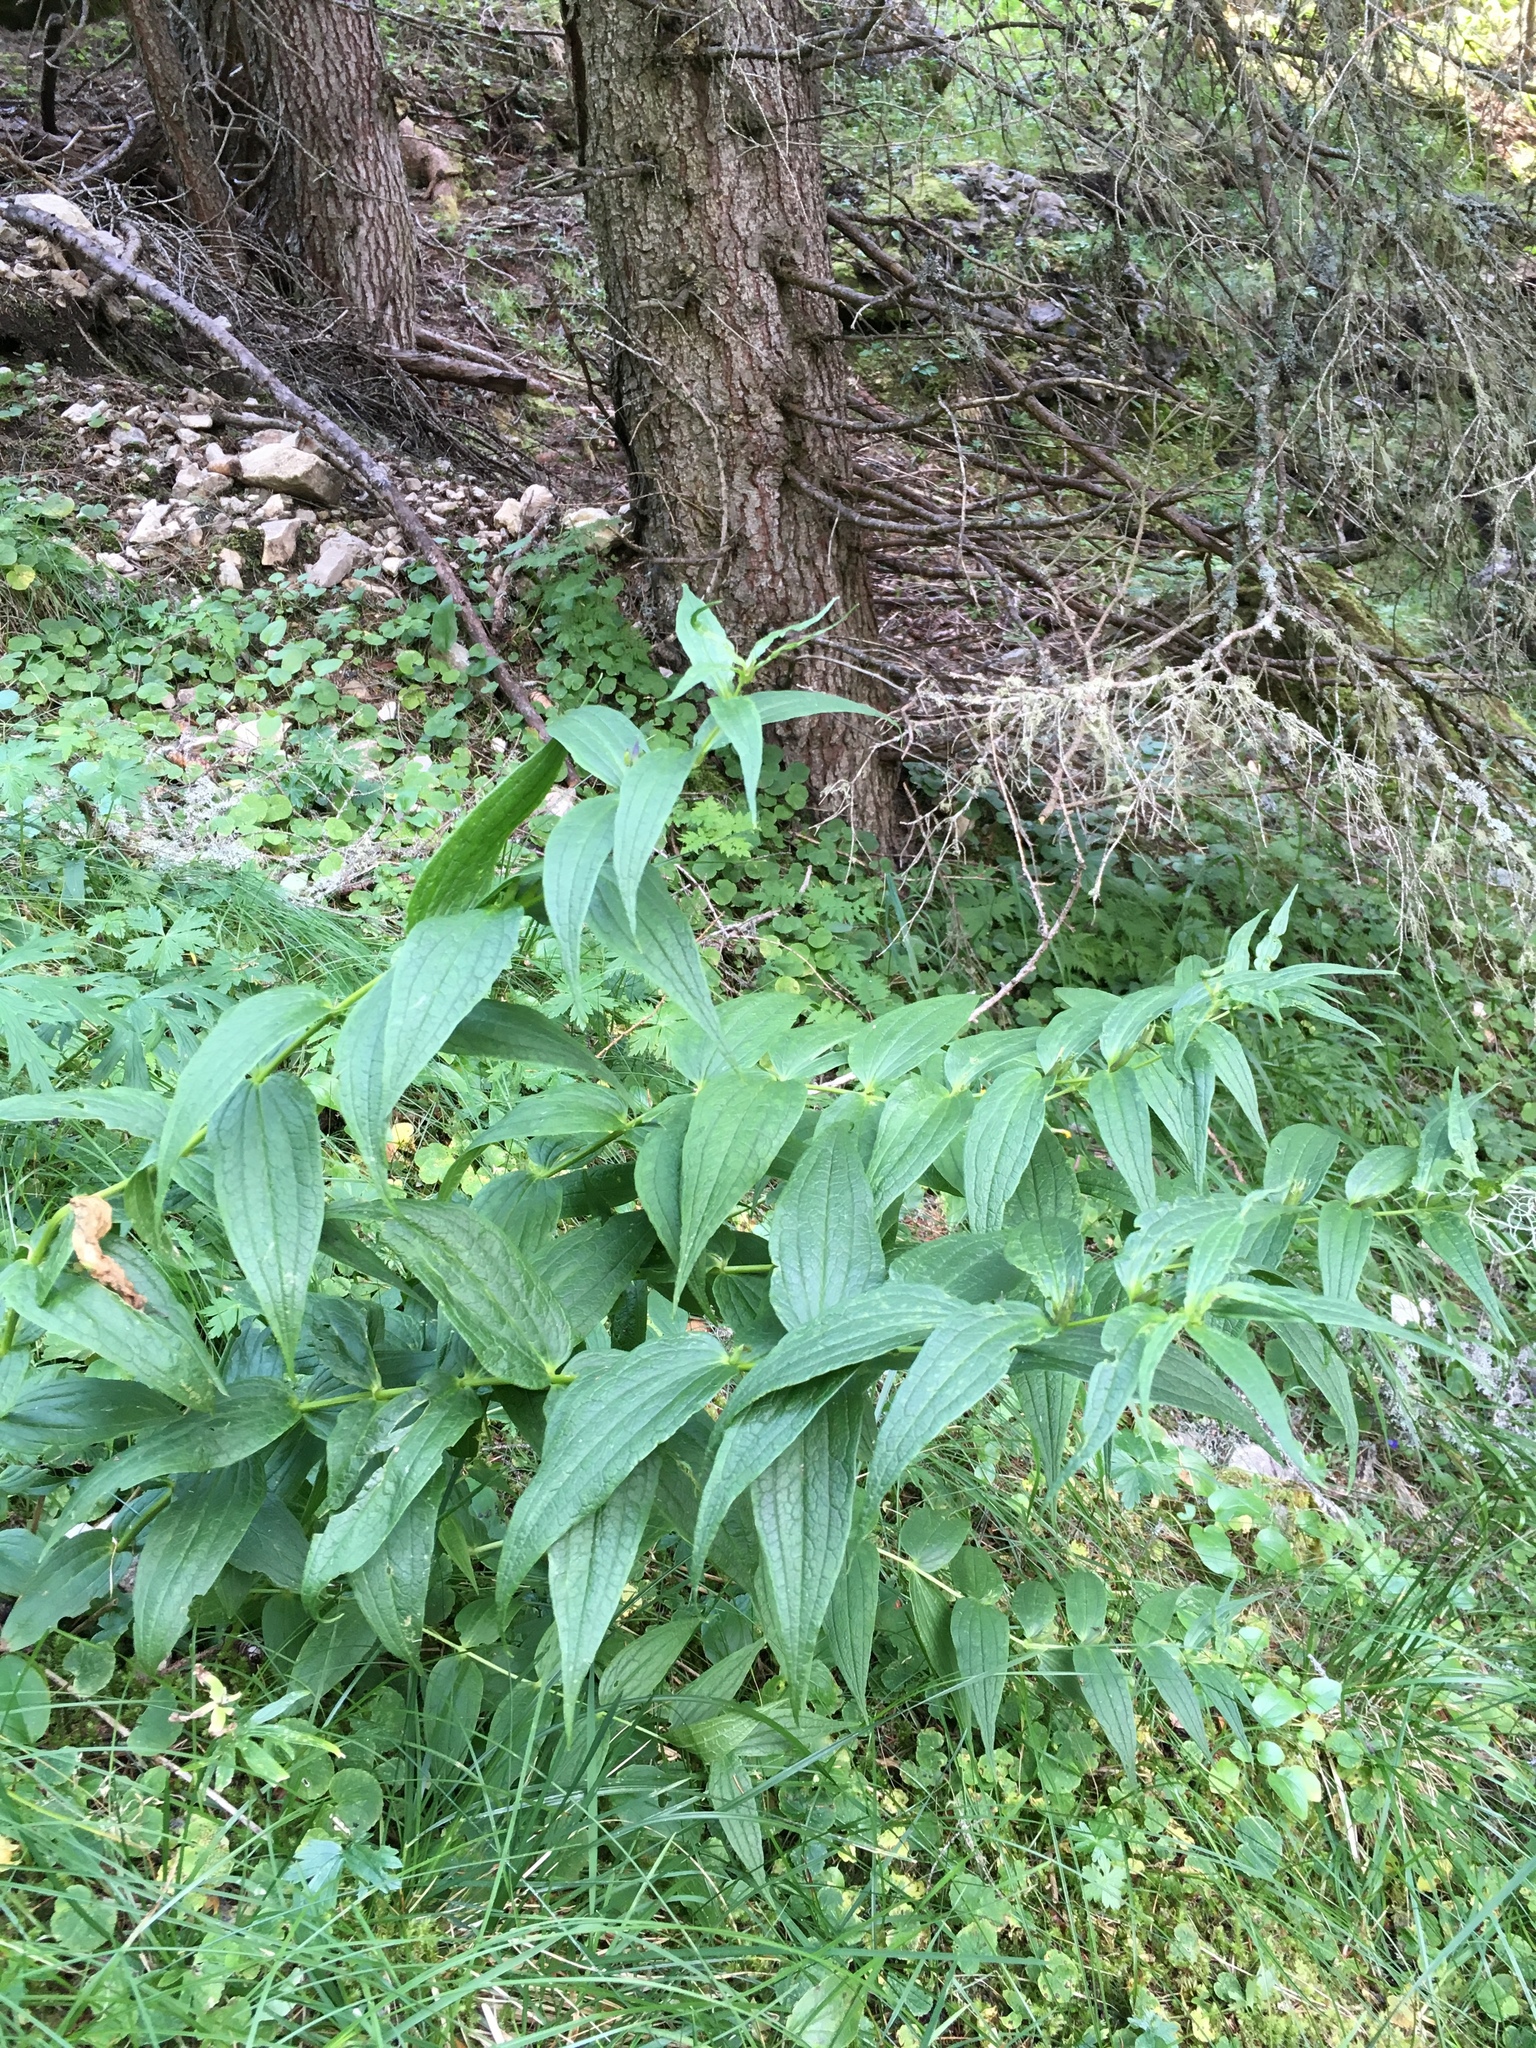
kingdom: Plantae
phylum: Tracheophyta
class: Magnoliopsida
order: Gentianales
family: Gentianaceae
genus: Gentiana
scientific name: Gentiana asclepiadea
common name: Willow gentian
